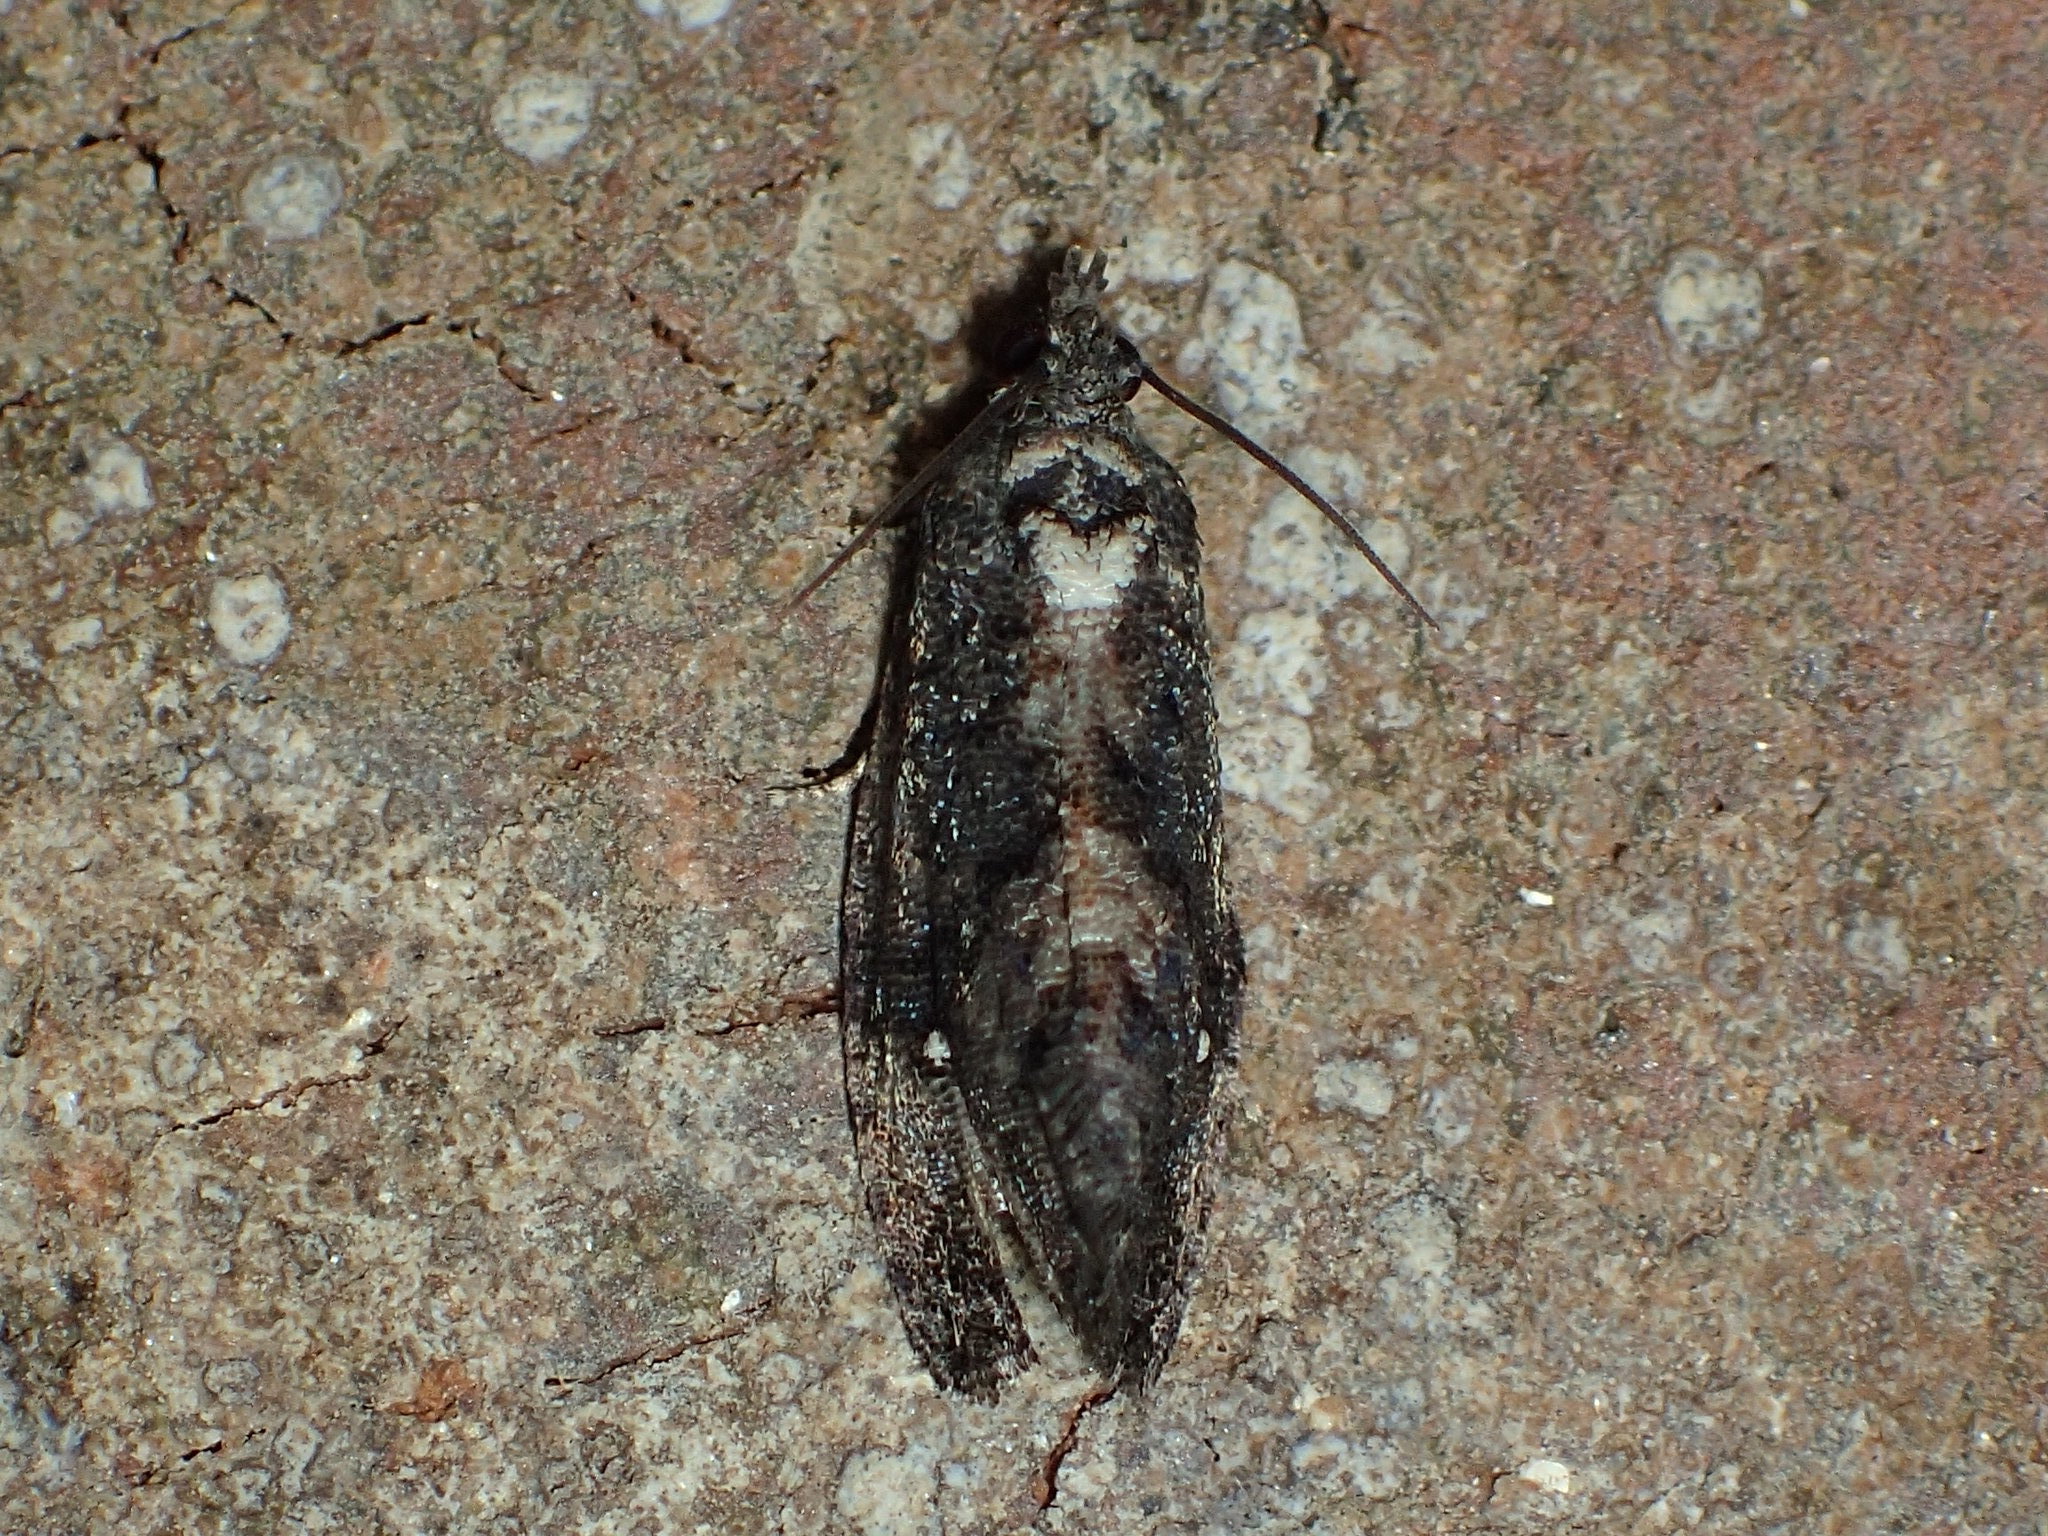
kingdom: Animalia
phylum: Arthropoda
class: Insecta
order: Lepidoptera
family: Tortricidae
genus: Gymnandrosoma
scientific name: Gymnandrosoma punctidiscanum
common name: Dotted ecdytolopha moth
